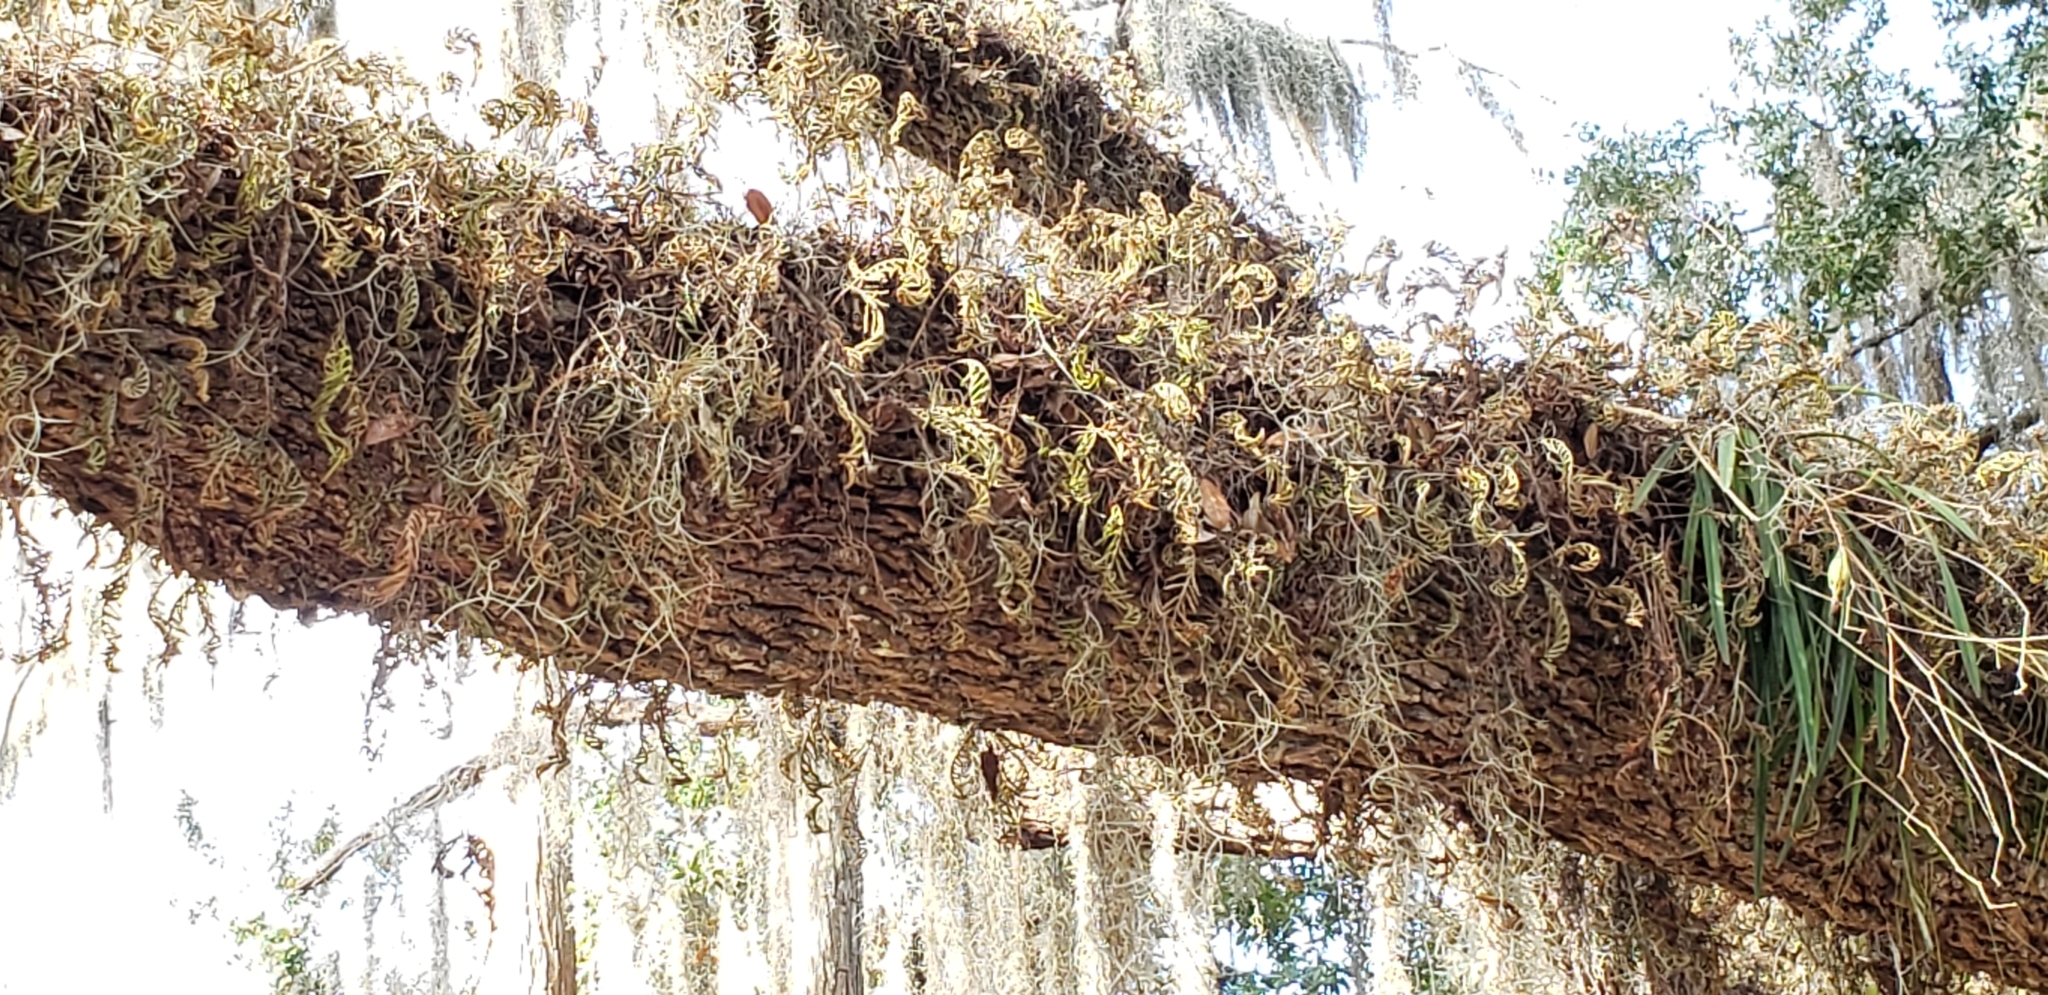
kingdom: Plantae
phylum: Tracheophyta
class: Polypodiopsida
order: Polypodiales
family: Polypodiaceae
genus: Pleopeltis
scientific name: Pleopeltis michauxiana
